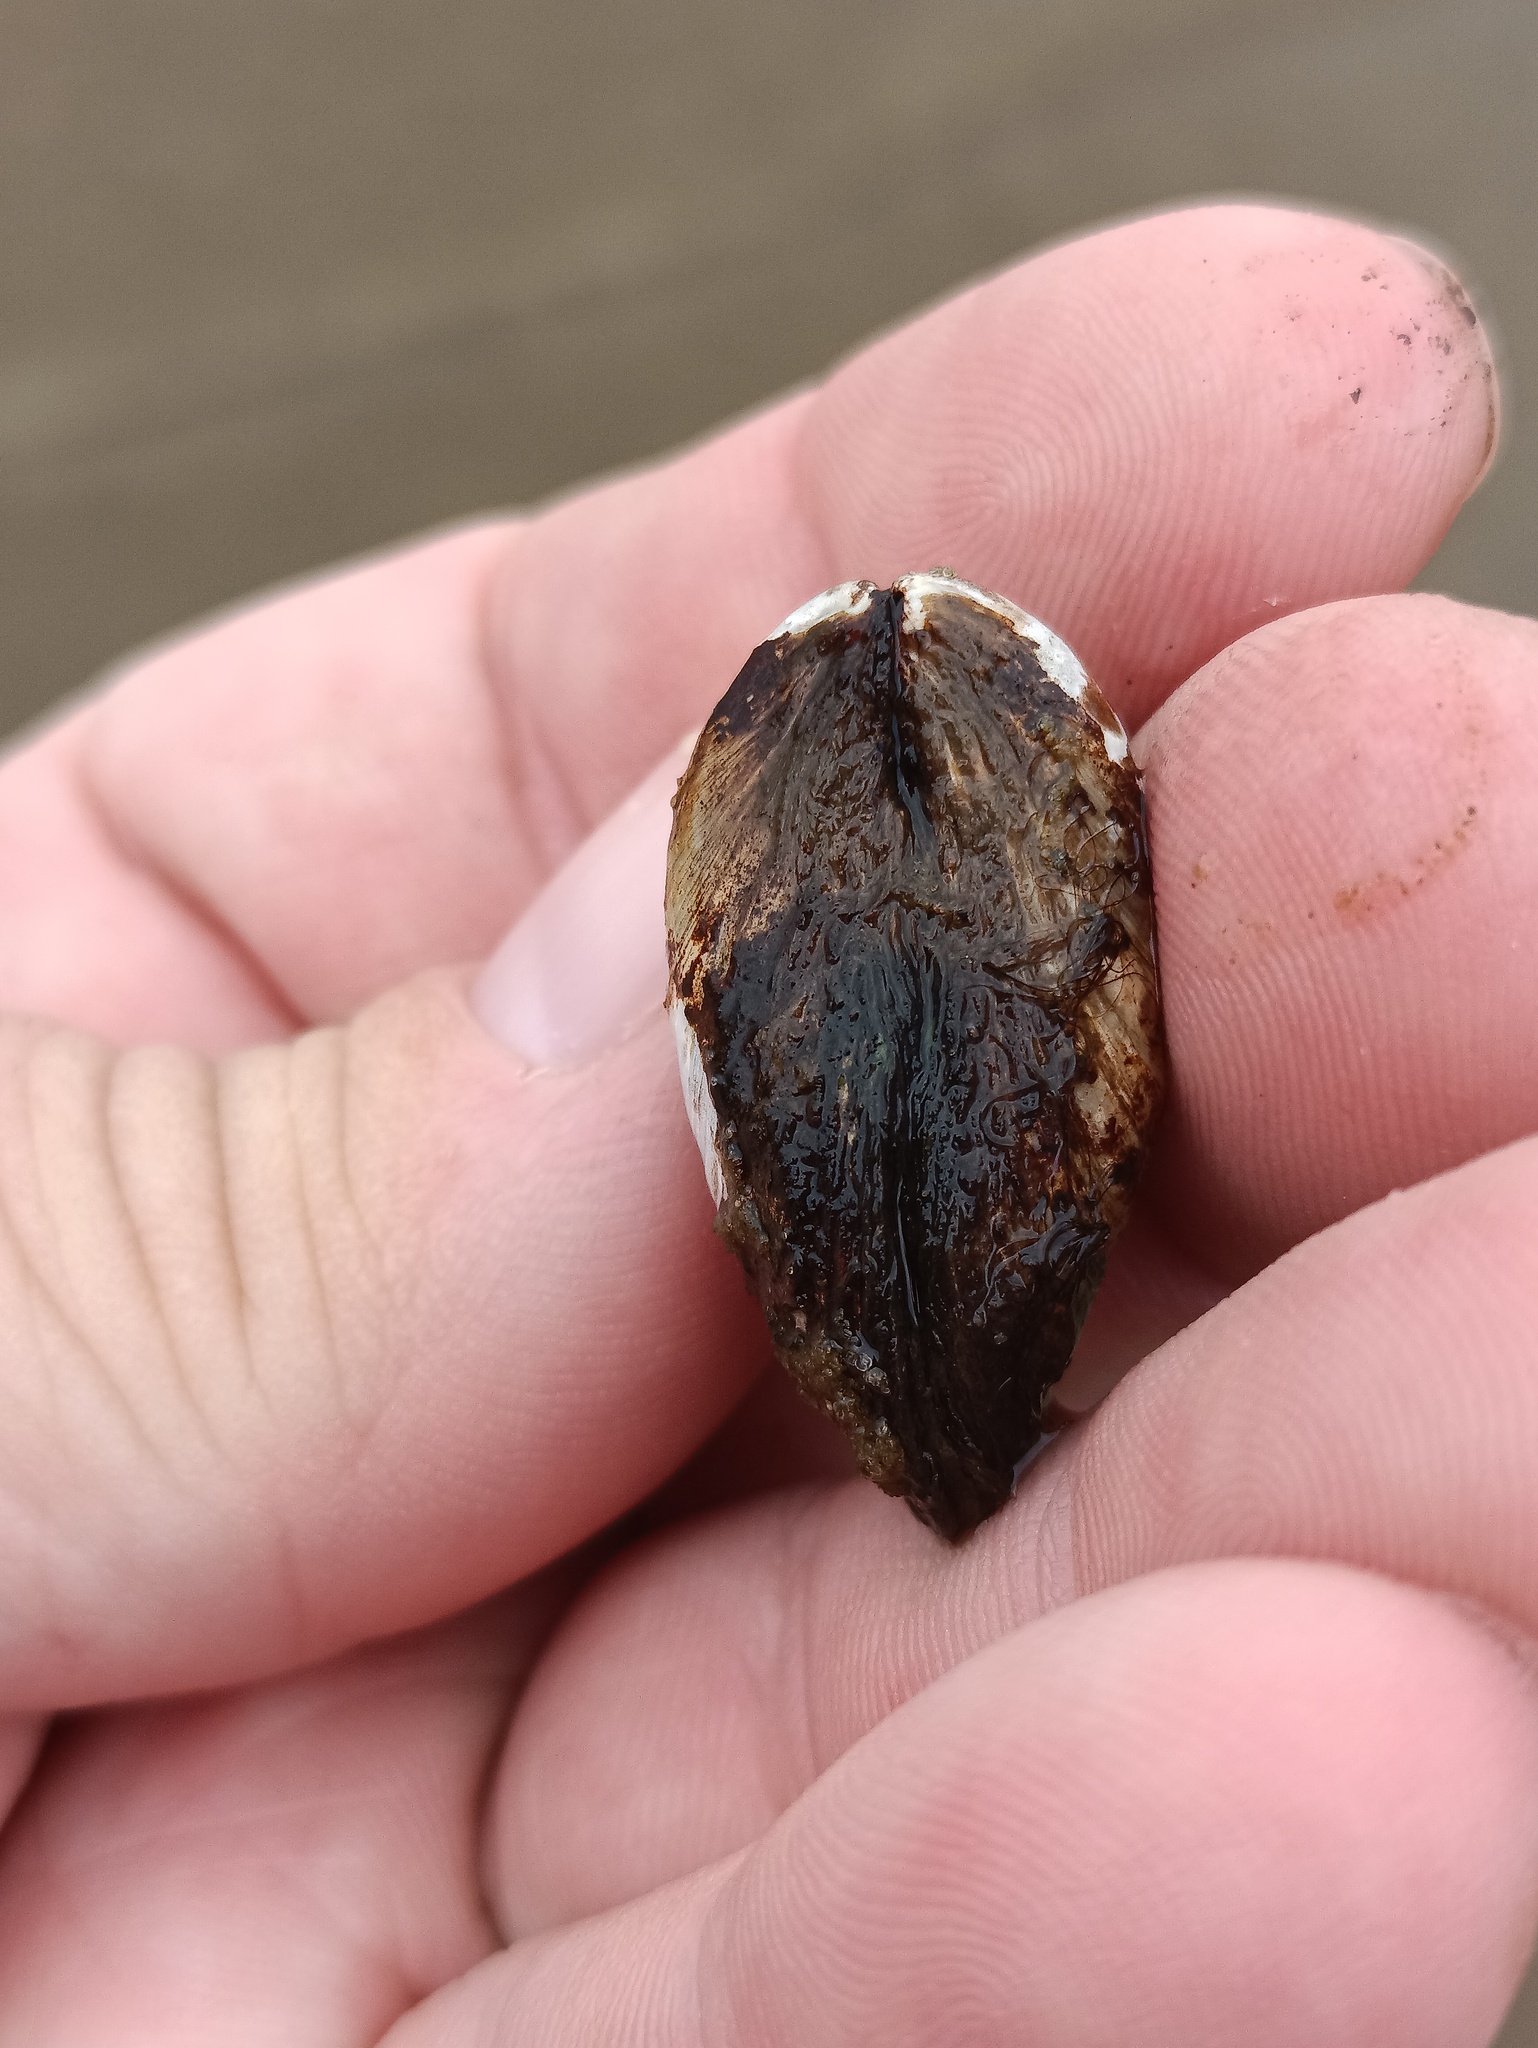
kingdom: Animalia
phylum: Mollusca
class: Bivalvia
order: Myida
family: Dreissenidae
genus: Dreissena
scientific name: Dreissena polymorpha
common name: Zebra mussel
